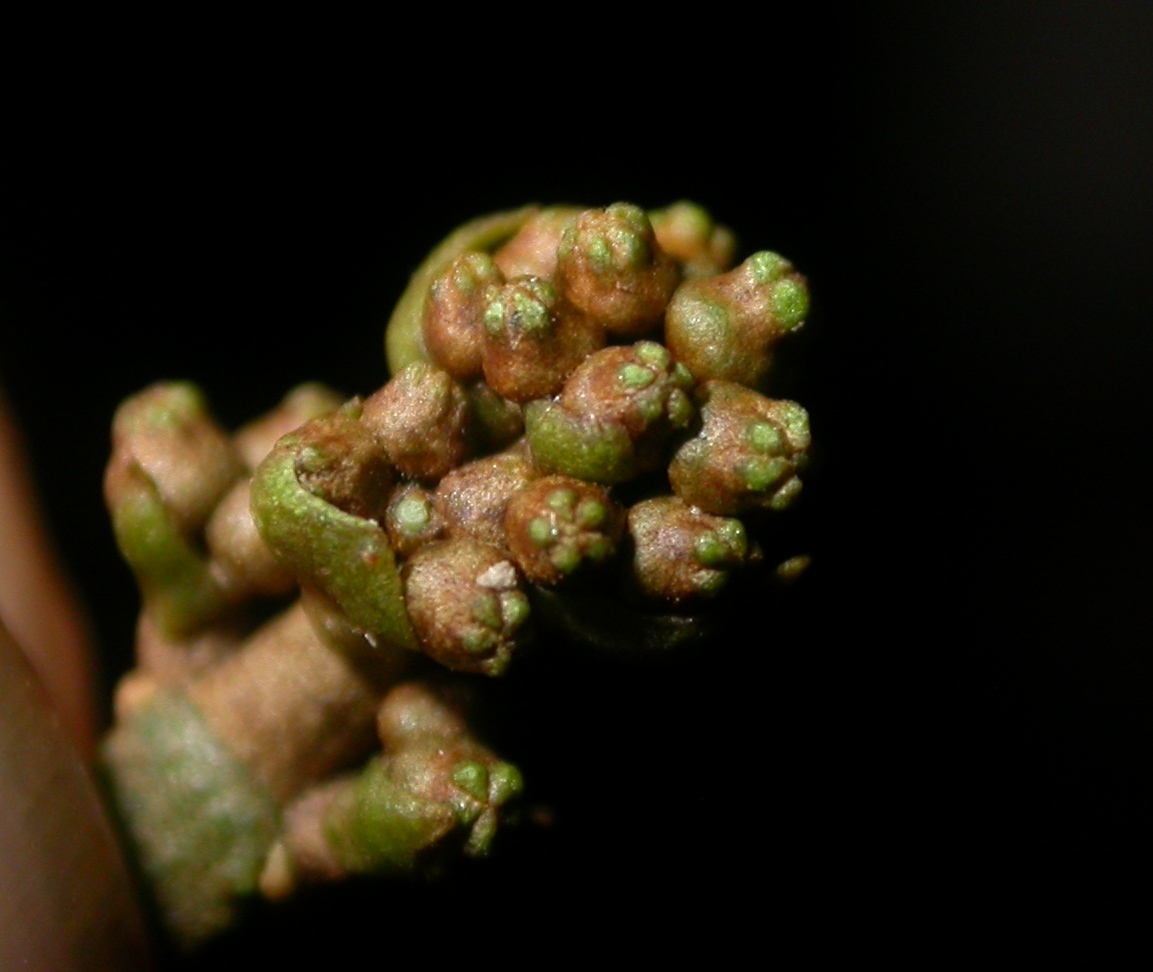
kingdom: Plantae
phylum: Tracheophyta
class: Magnoliopsida
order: Myrtales
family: Melastomataceae
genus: Miconia
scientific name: Miconia commutata
